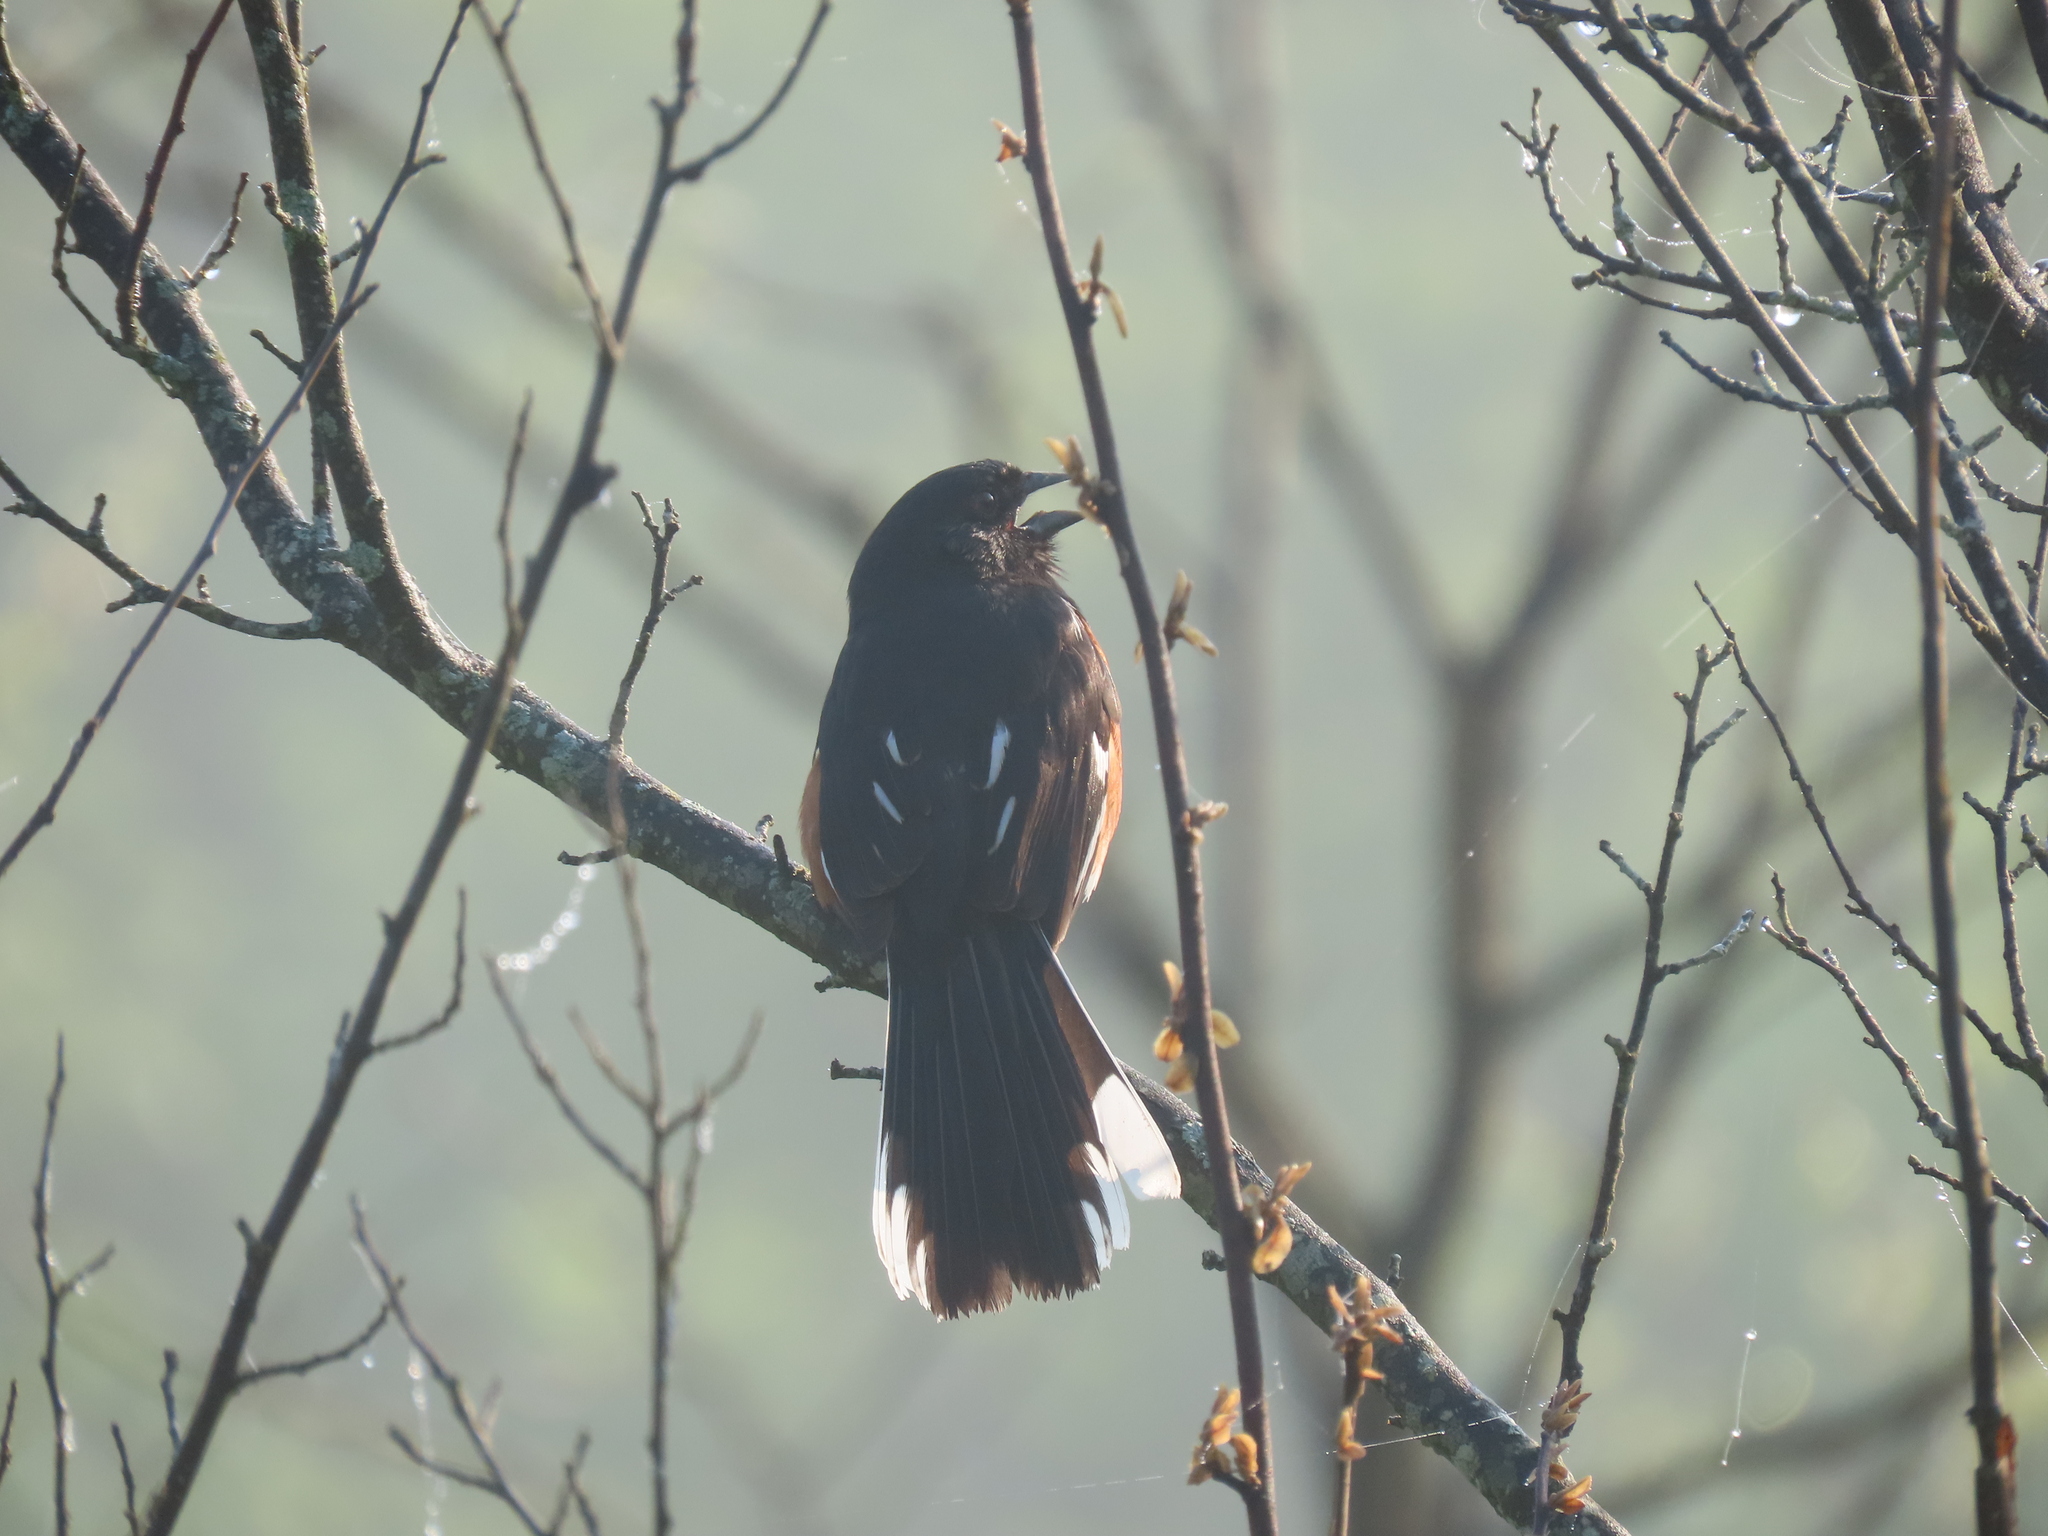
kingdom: Animalia
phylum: Chordata
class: Aves
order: Passeriformes
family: Passerellidae
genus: Pipilo
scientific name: Pipilo erythrophthalmus
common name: Eastern towhee
